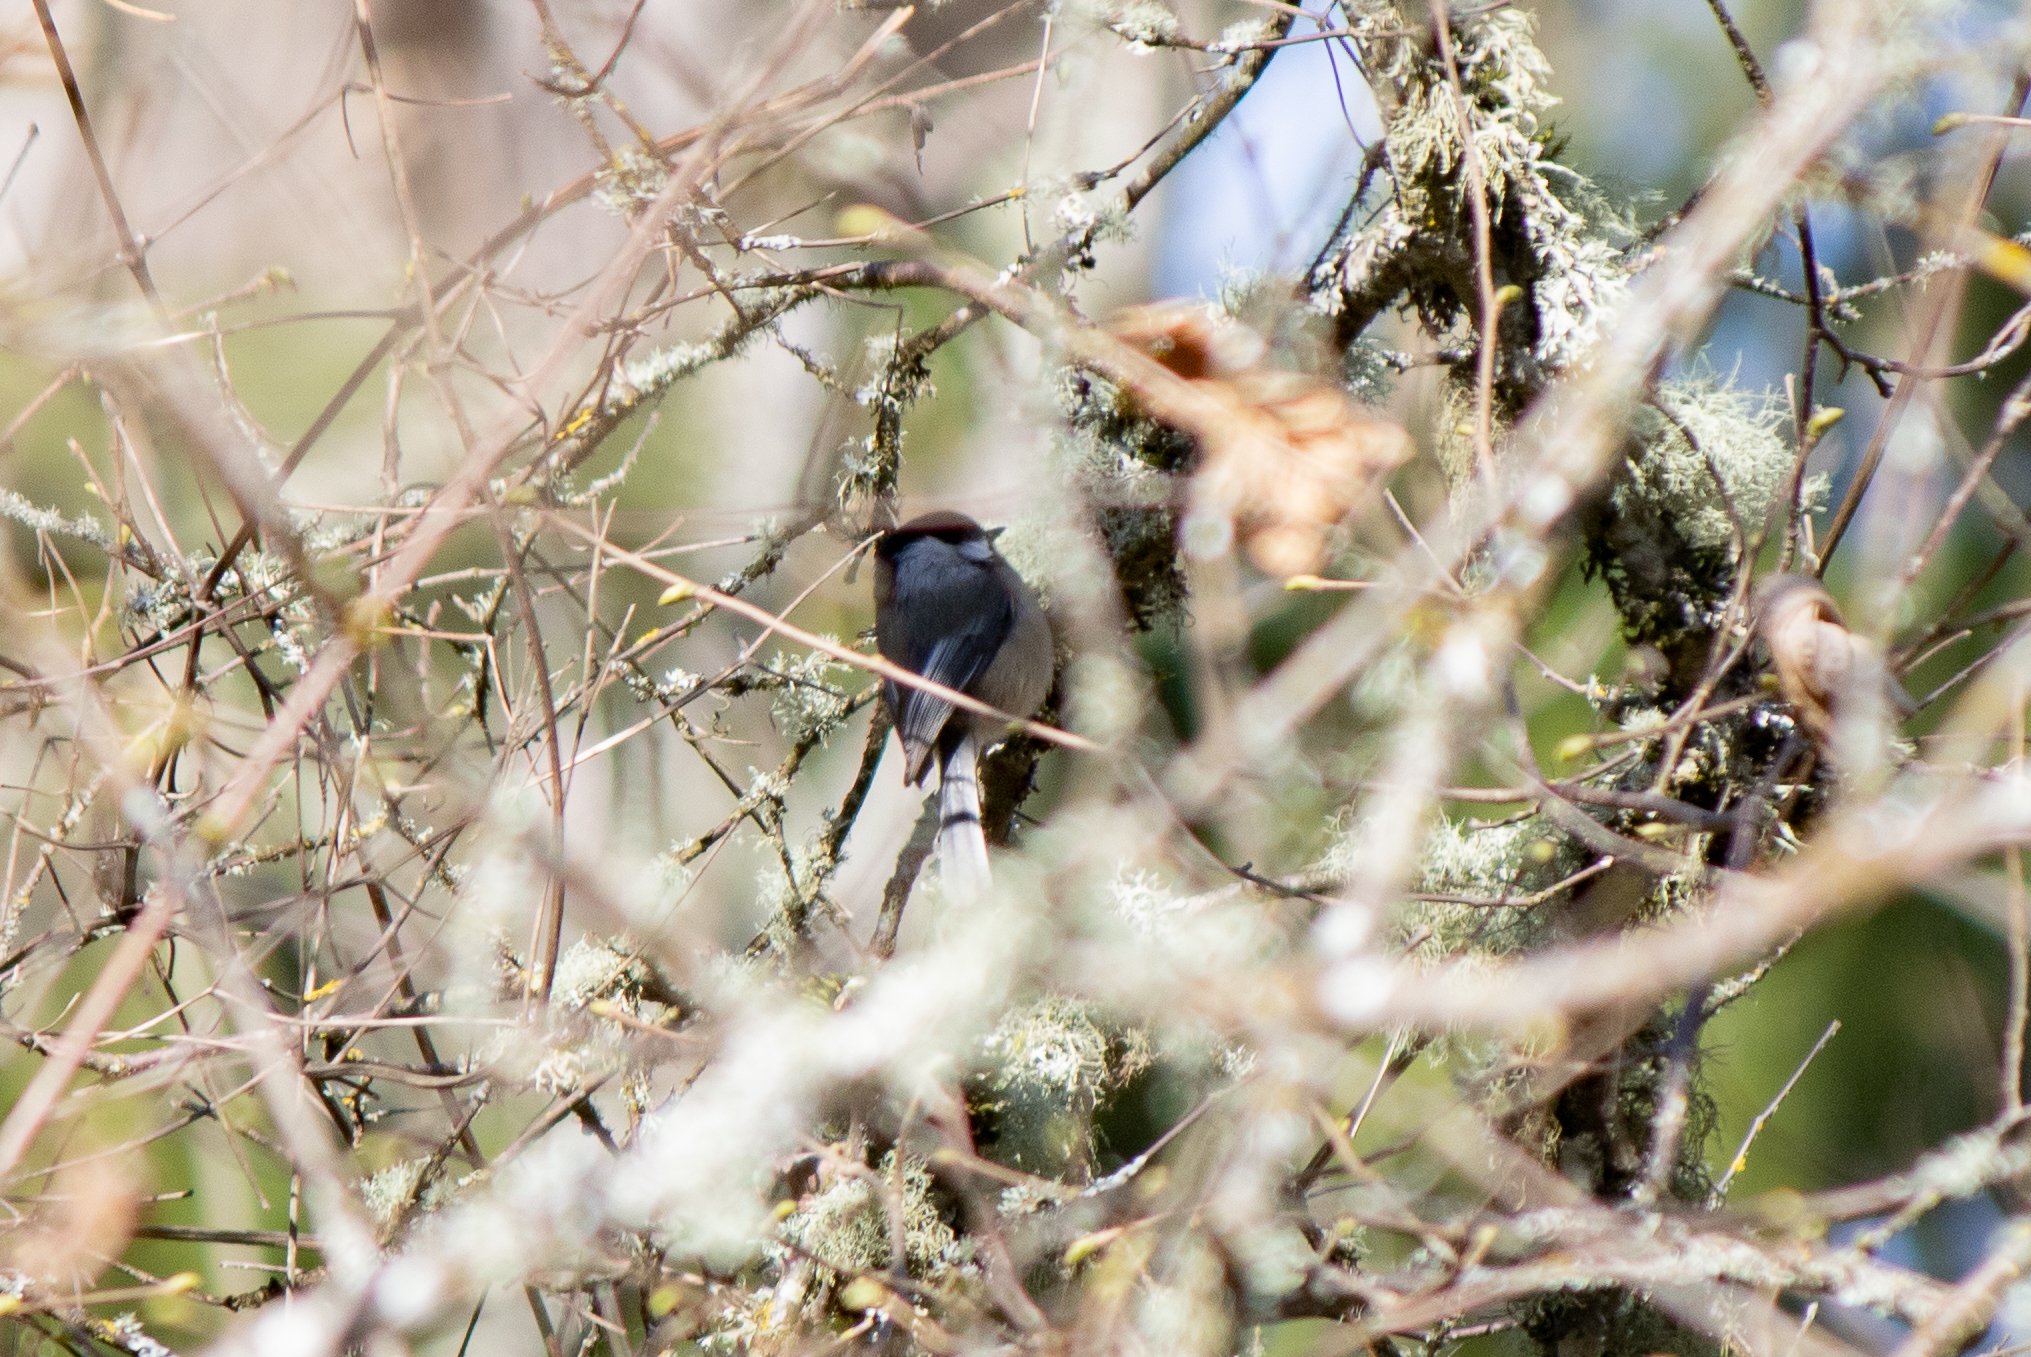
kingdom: Animalia
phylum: Chordata
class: Aves
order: Passeriformes
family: Paridae
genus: Poecile
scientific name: Poecile atricapillus
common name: Black-capped chickadee
